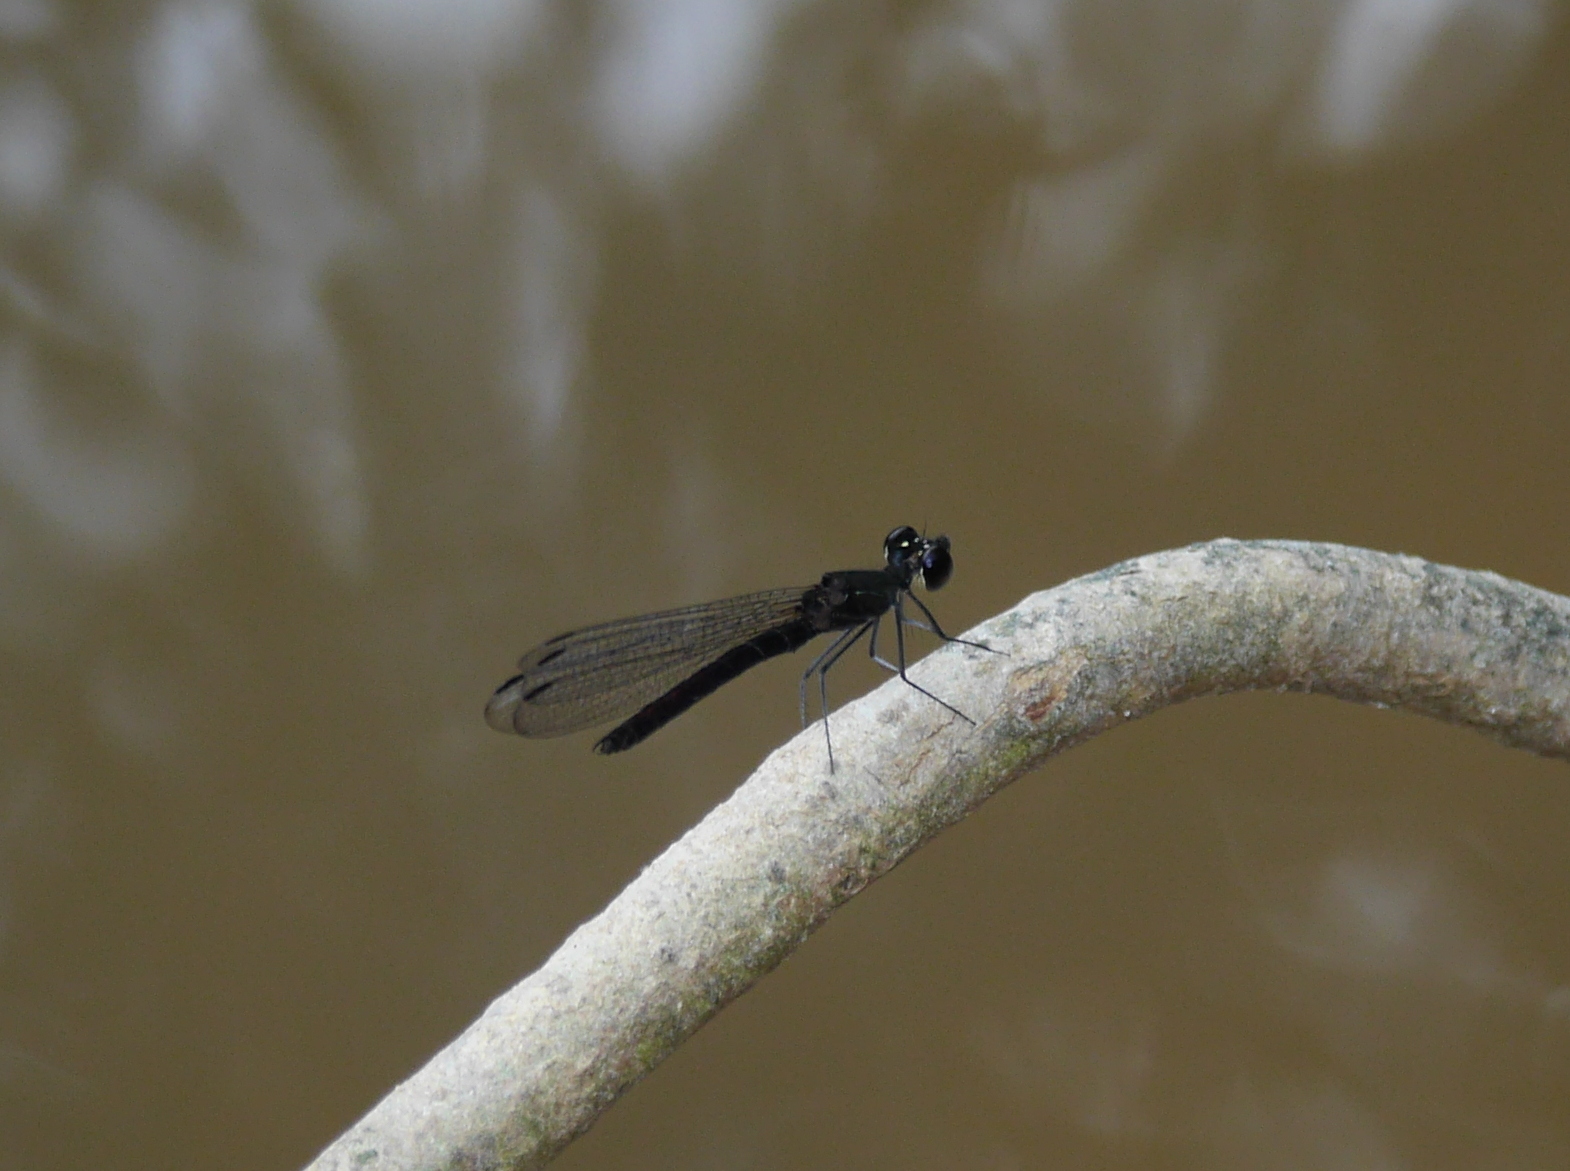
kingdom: Animalia
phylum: Arthropoda
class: Insecta
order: Odonata
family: Chlorocyphidae
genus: Libellago
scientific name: Libellago hyalina
